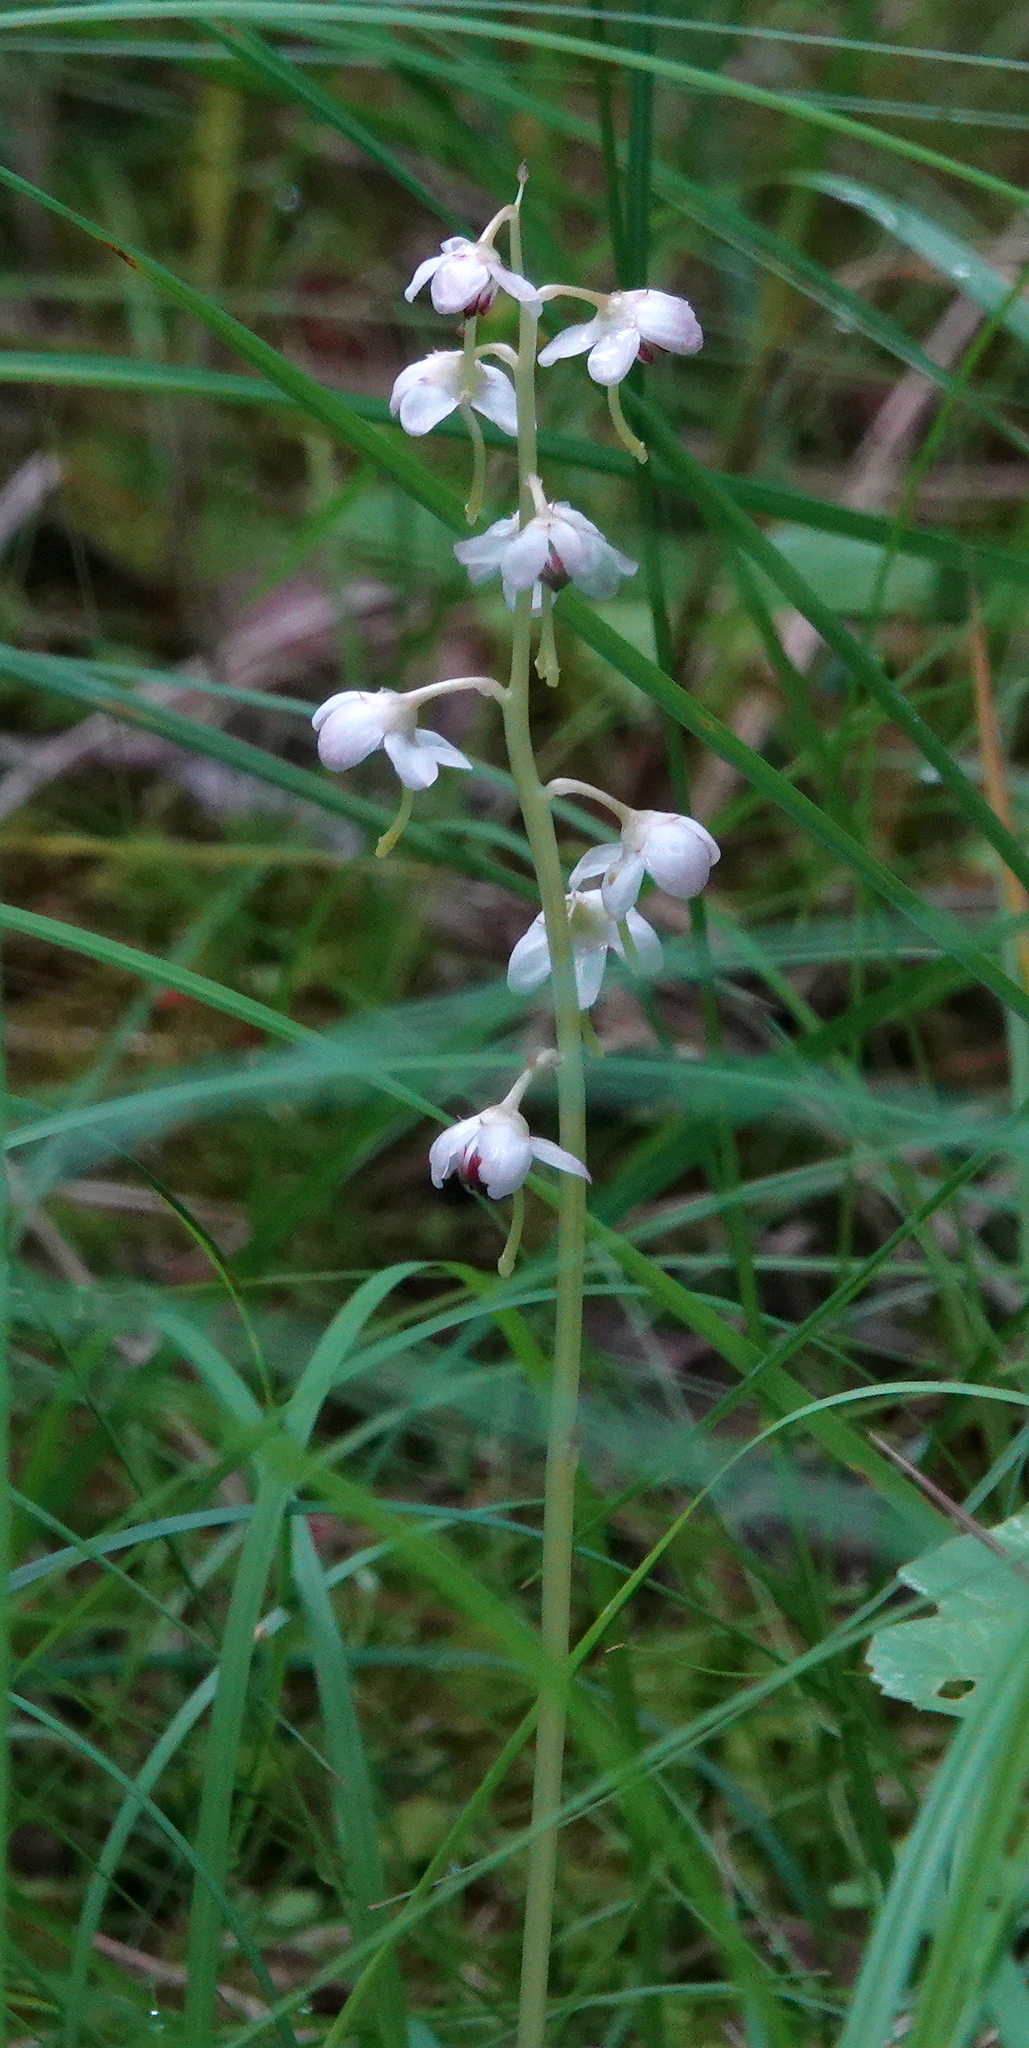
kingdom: Plantae
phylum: Tracheophyta
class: Magnoliopsida
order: Ericales
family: Ericaceae
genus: Pyrola
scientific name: Pyrola asarifolia
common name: Bog wintergreen
